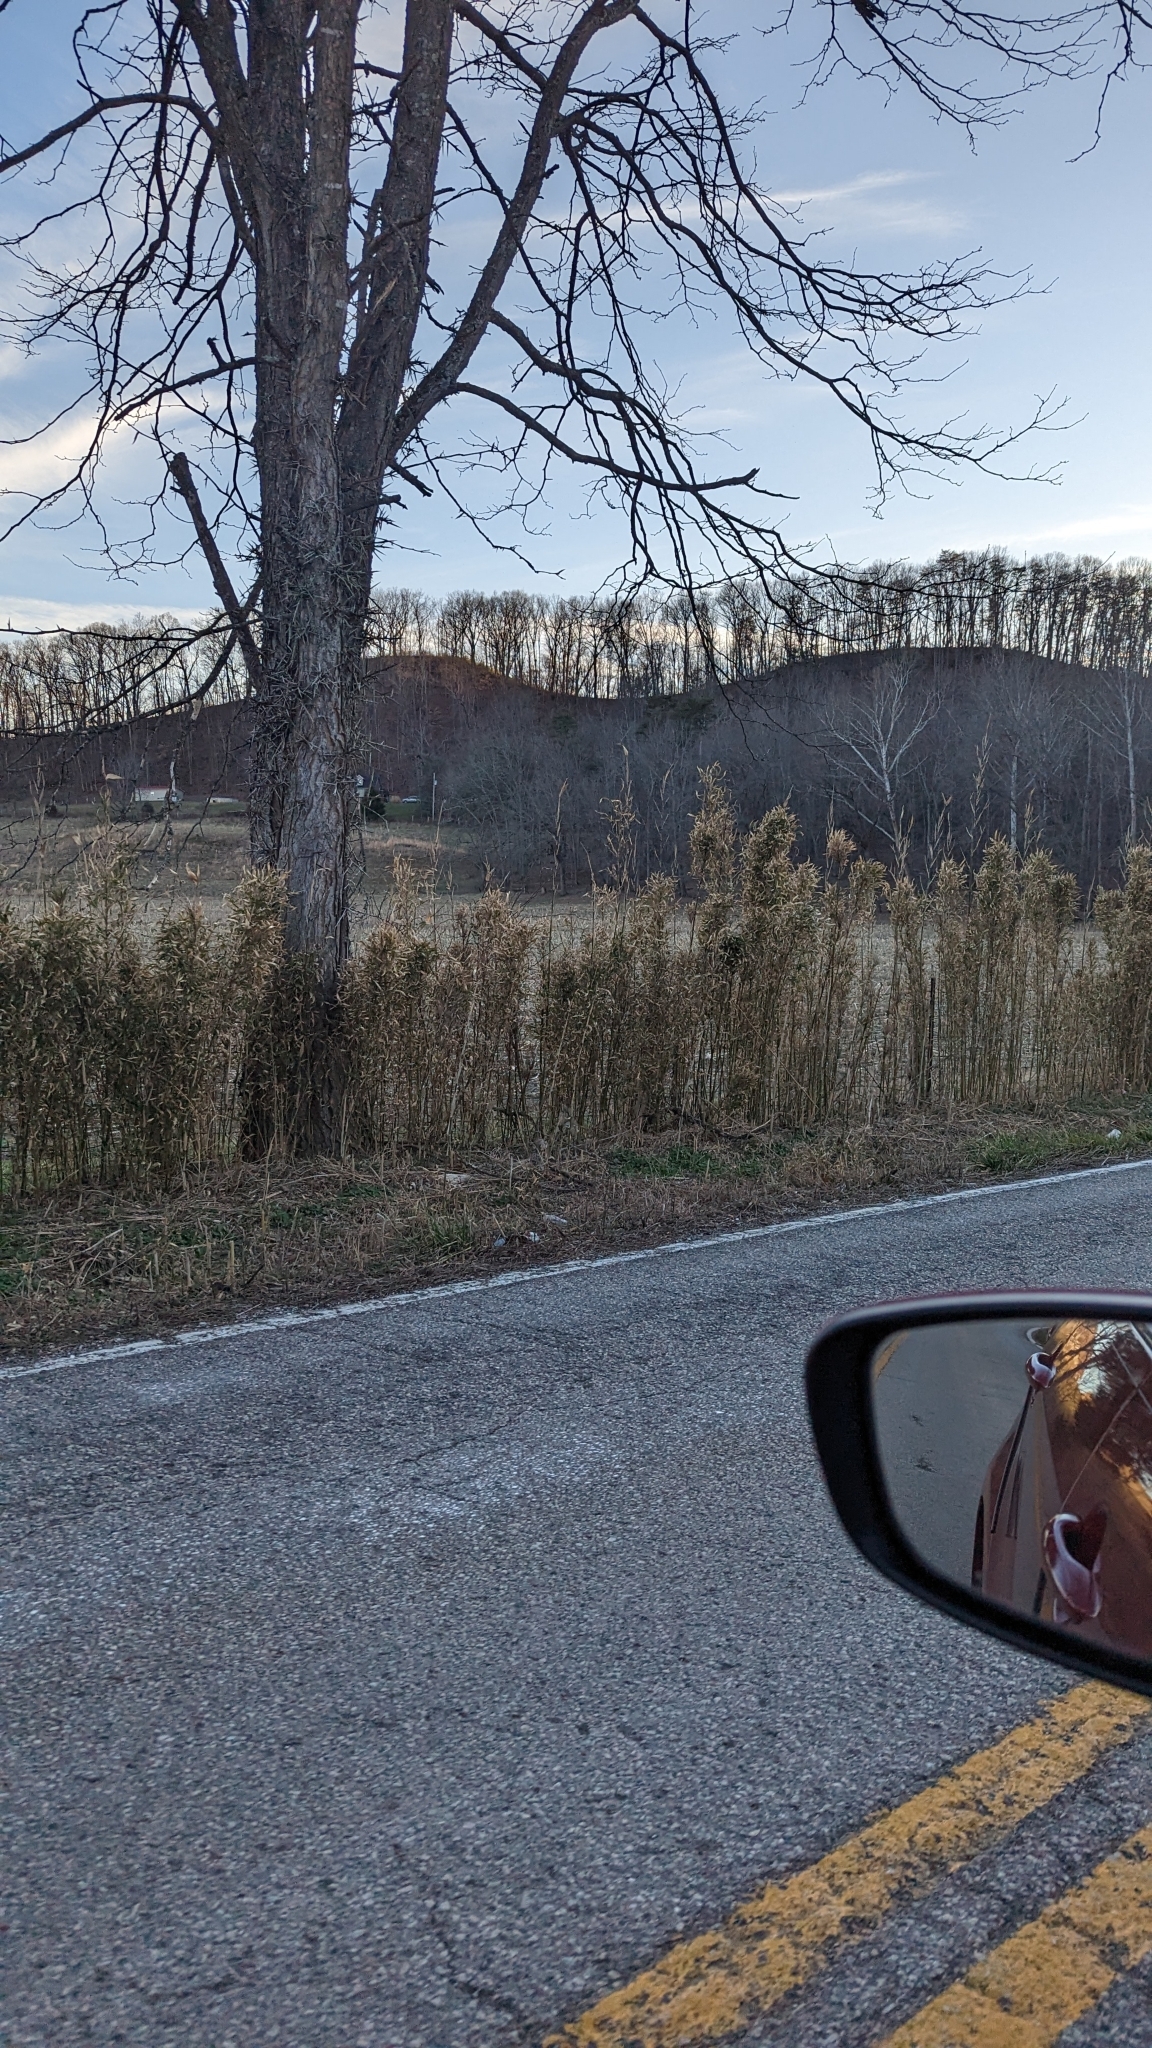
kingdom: Plantae
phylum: Tracheophyta
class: Liliopsida
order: Poales
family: Poaceae
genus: Arundinaria
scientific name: Arundinaria gigantea
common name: Giant cane
